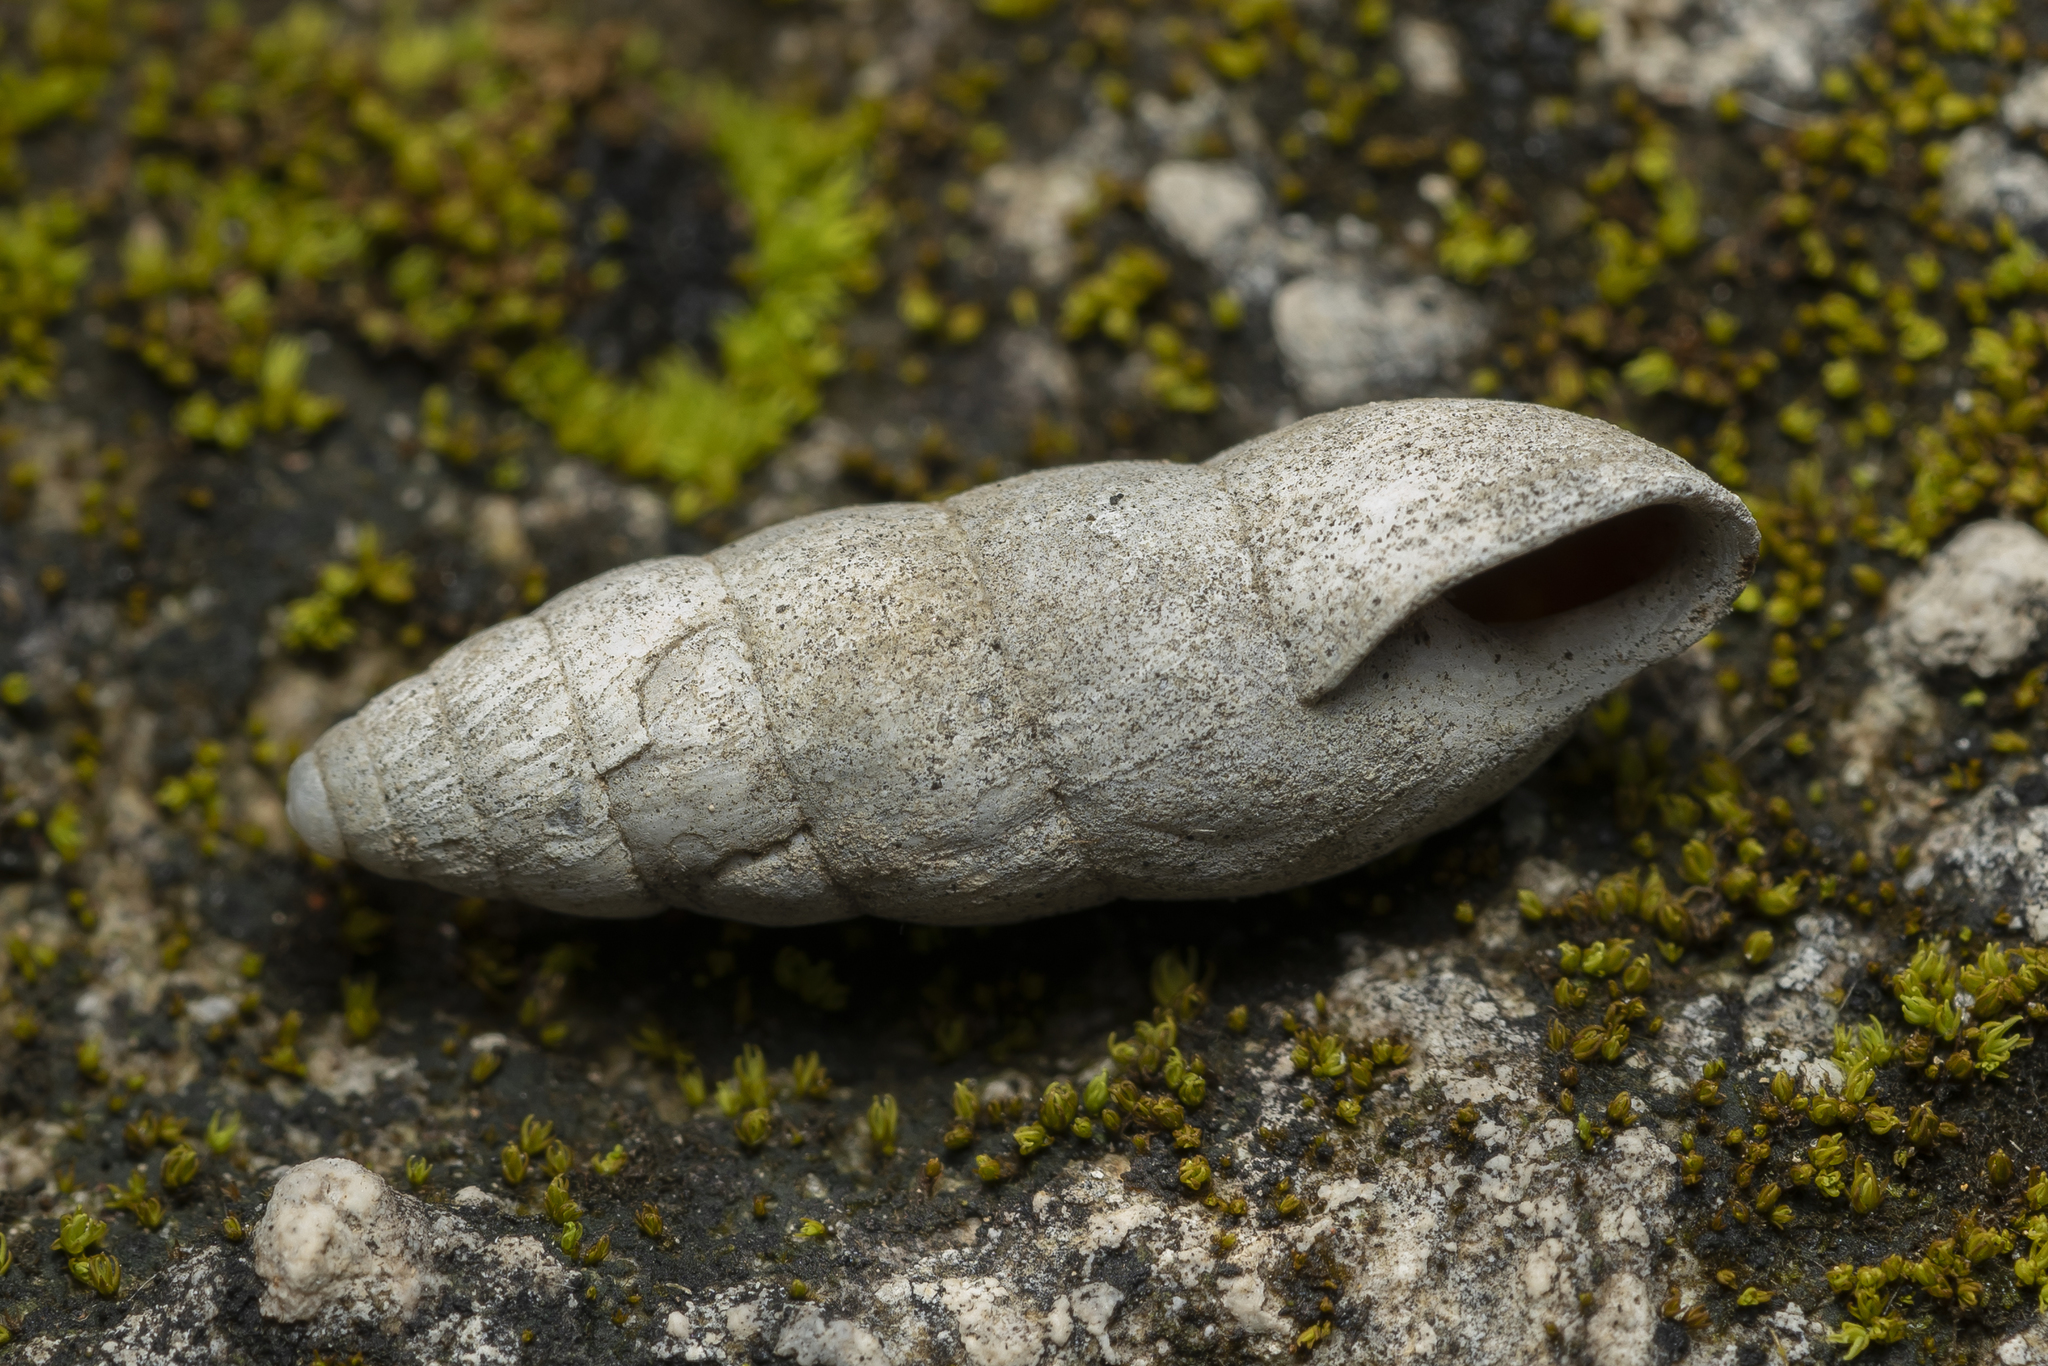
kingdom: Animalia
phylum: Mollusca
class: Gastropoda
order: Stylommatophora
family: Enidae
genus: Zebrina
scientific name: Zebrina fasciolata
